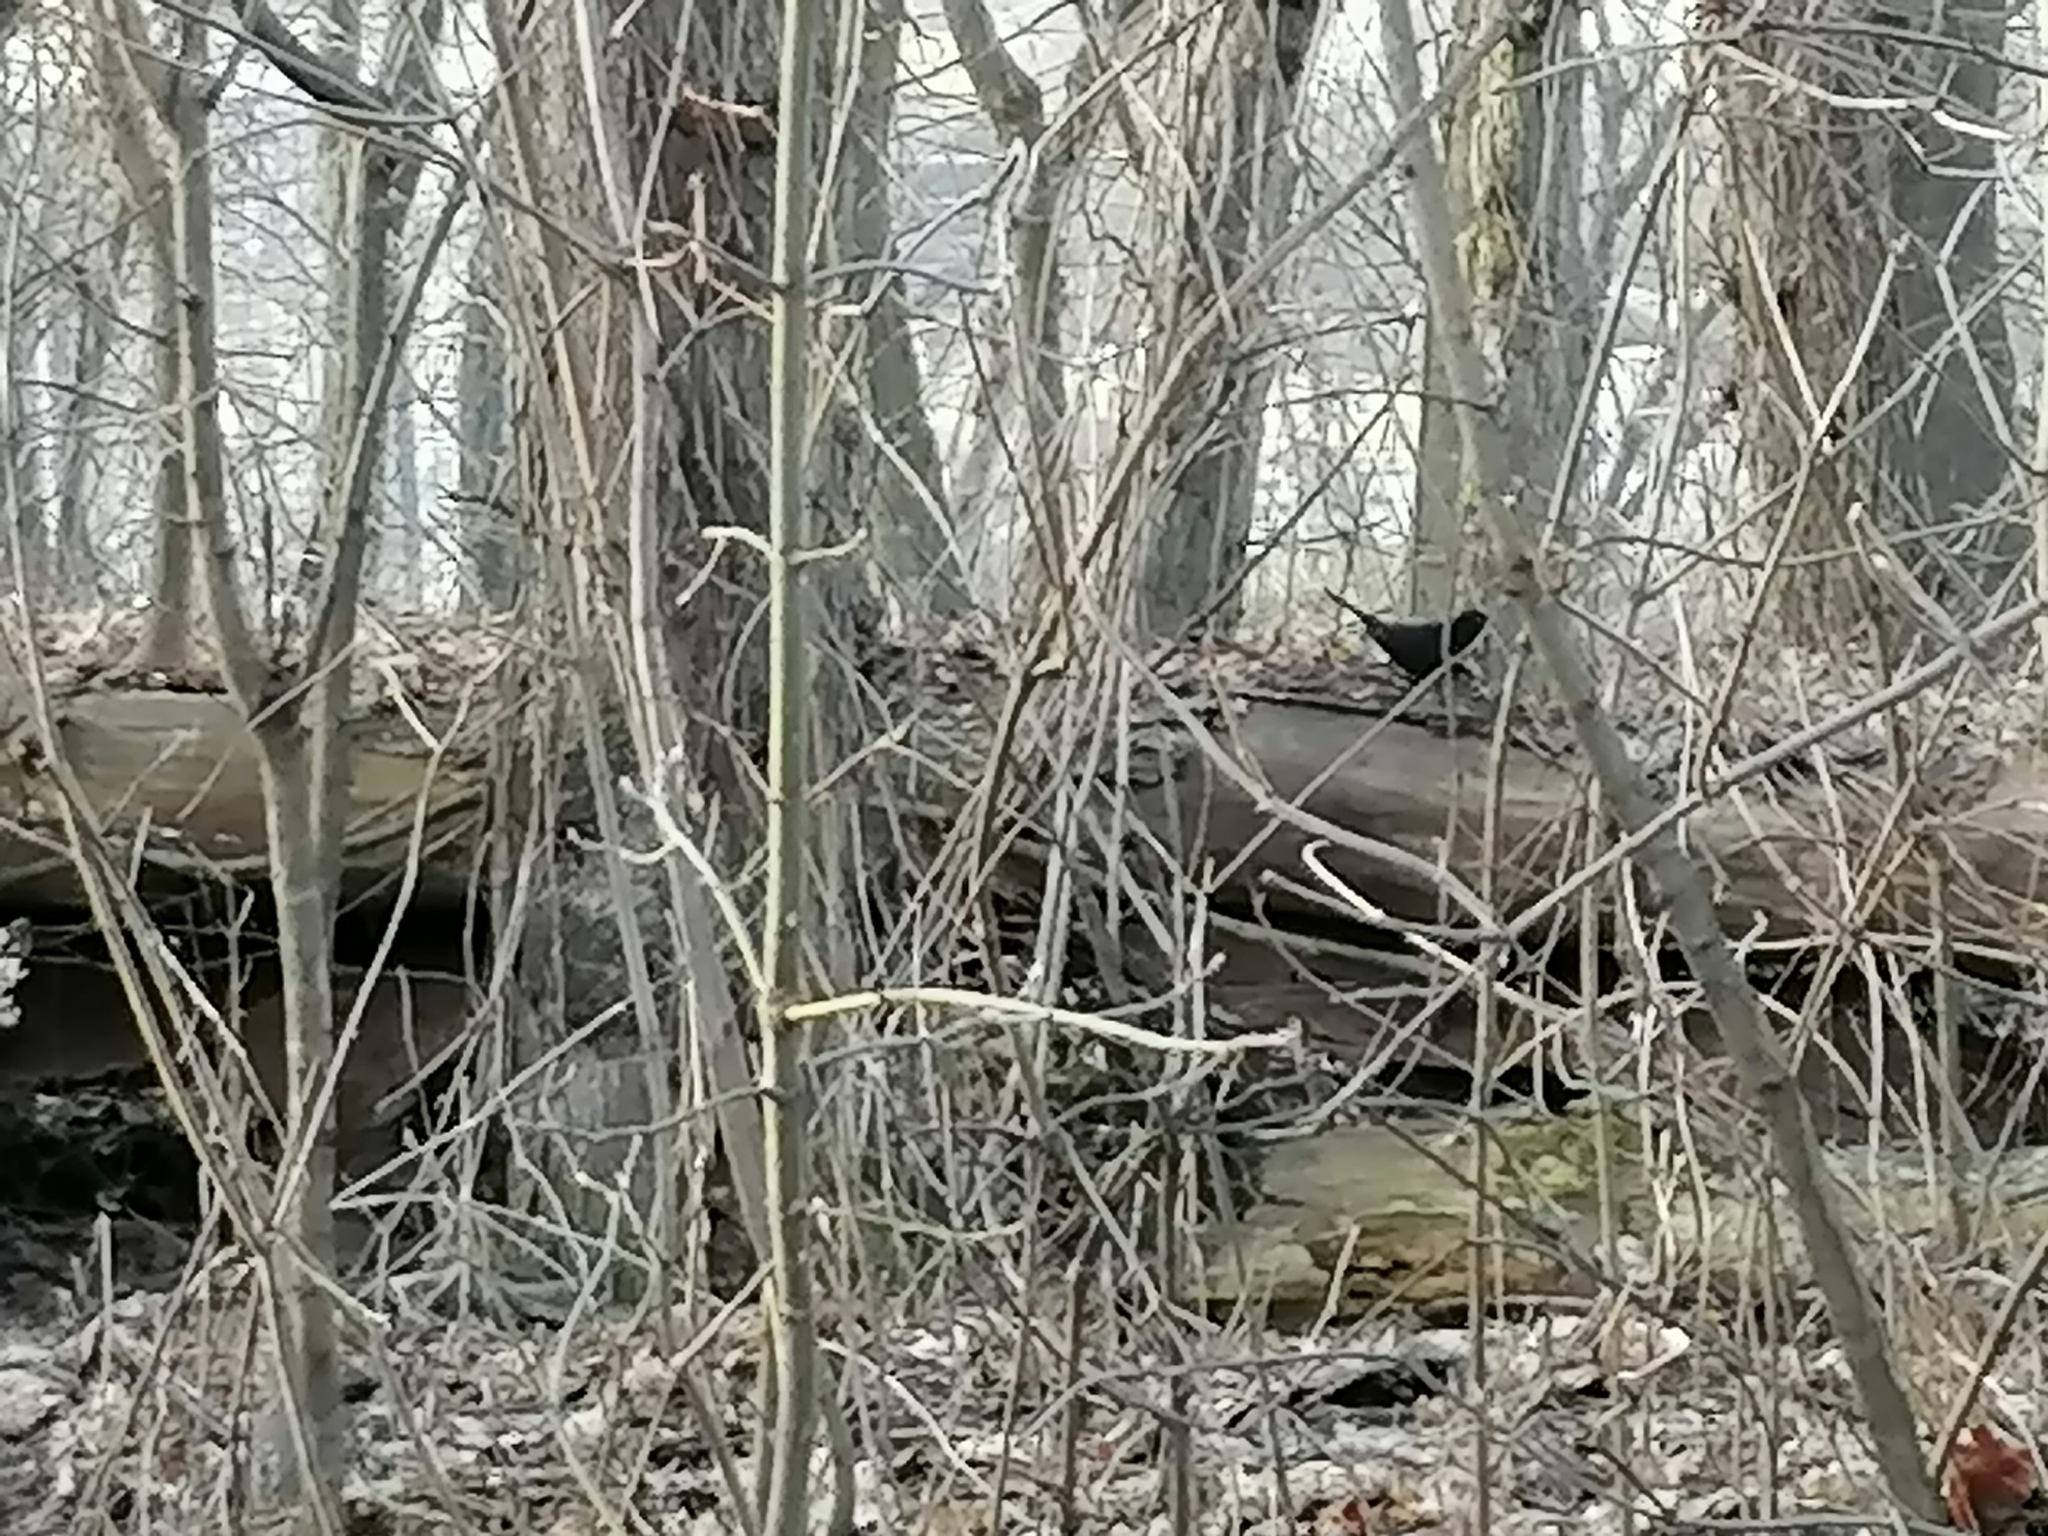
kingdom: Animalia
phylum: Chordata
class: Aves
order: Passeriformes
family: Turdidae
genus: Turdus
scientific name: Turdus merula
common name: Common blackbird
